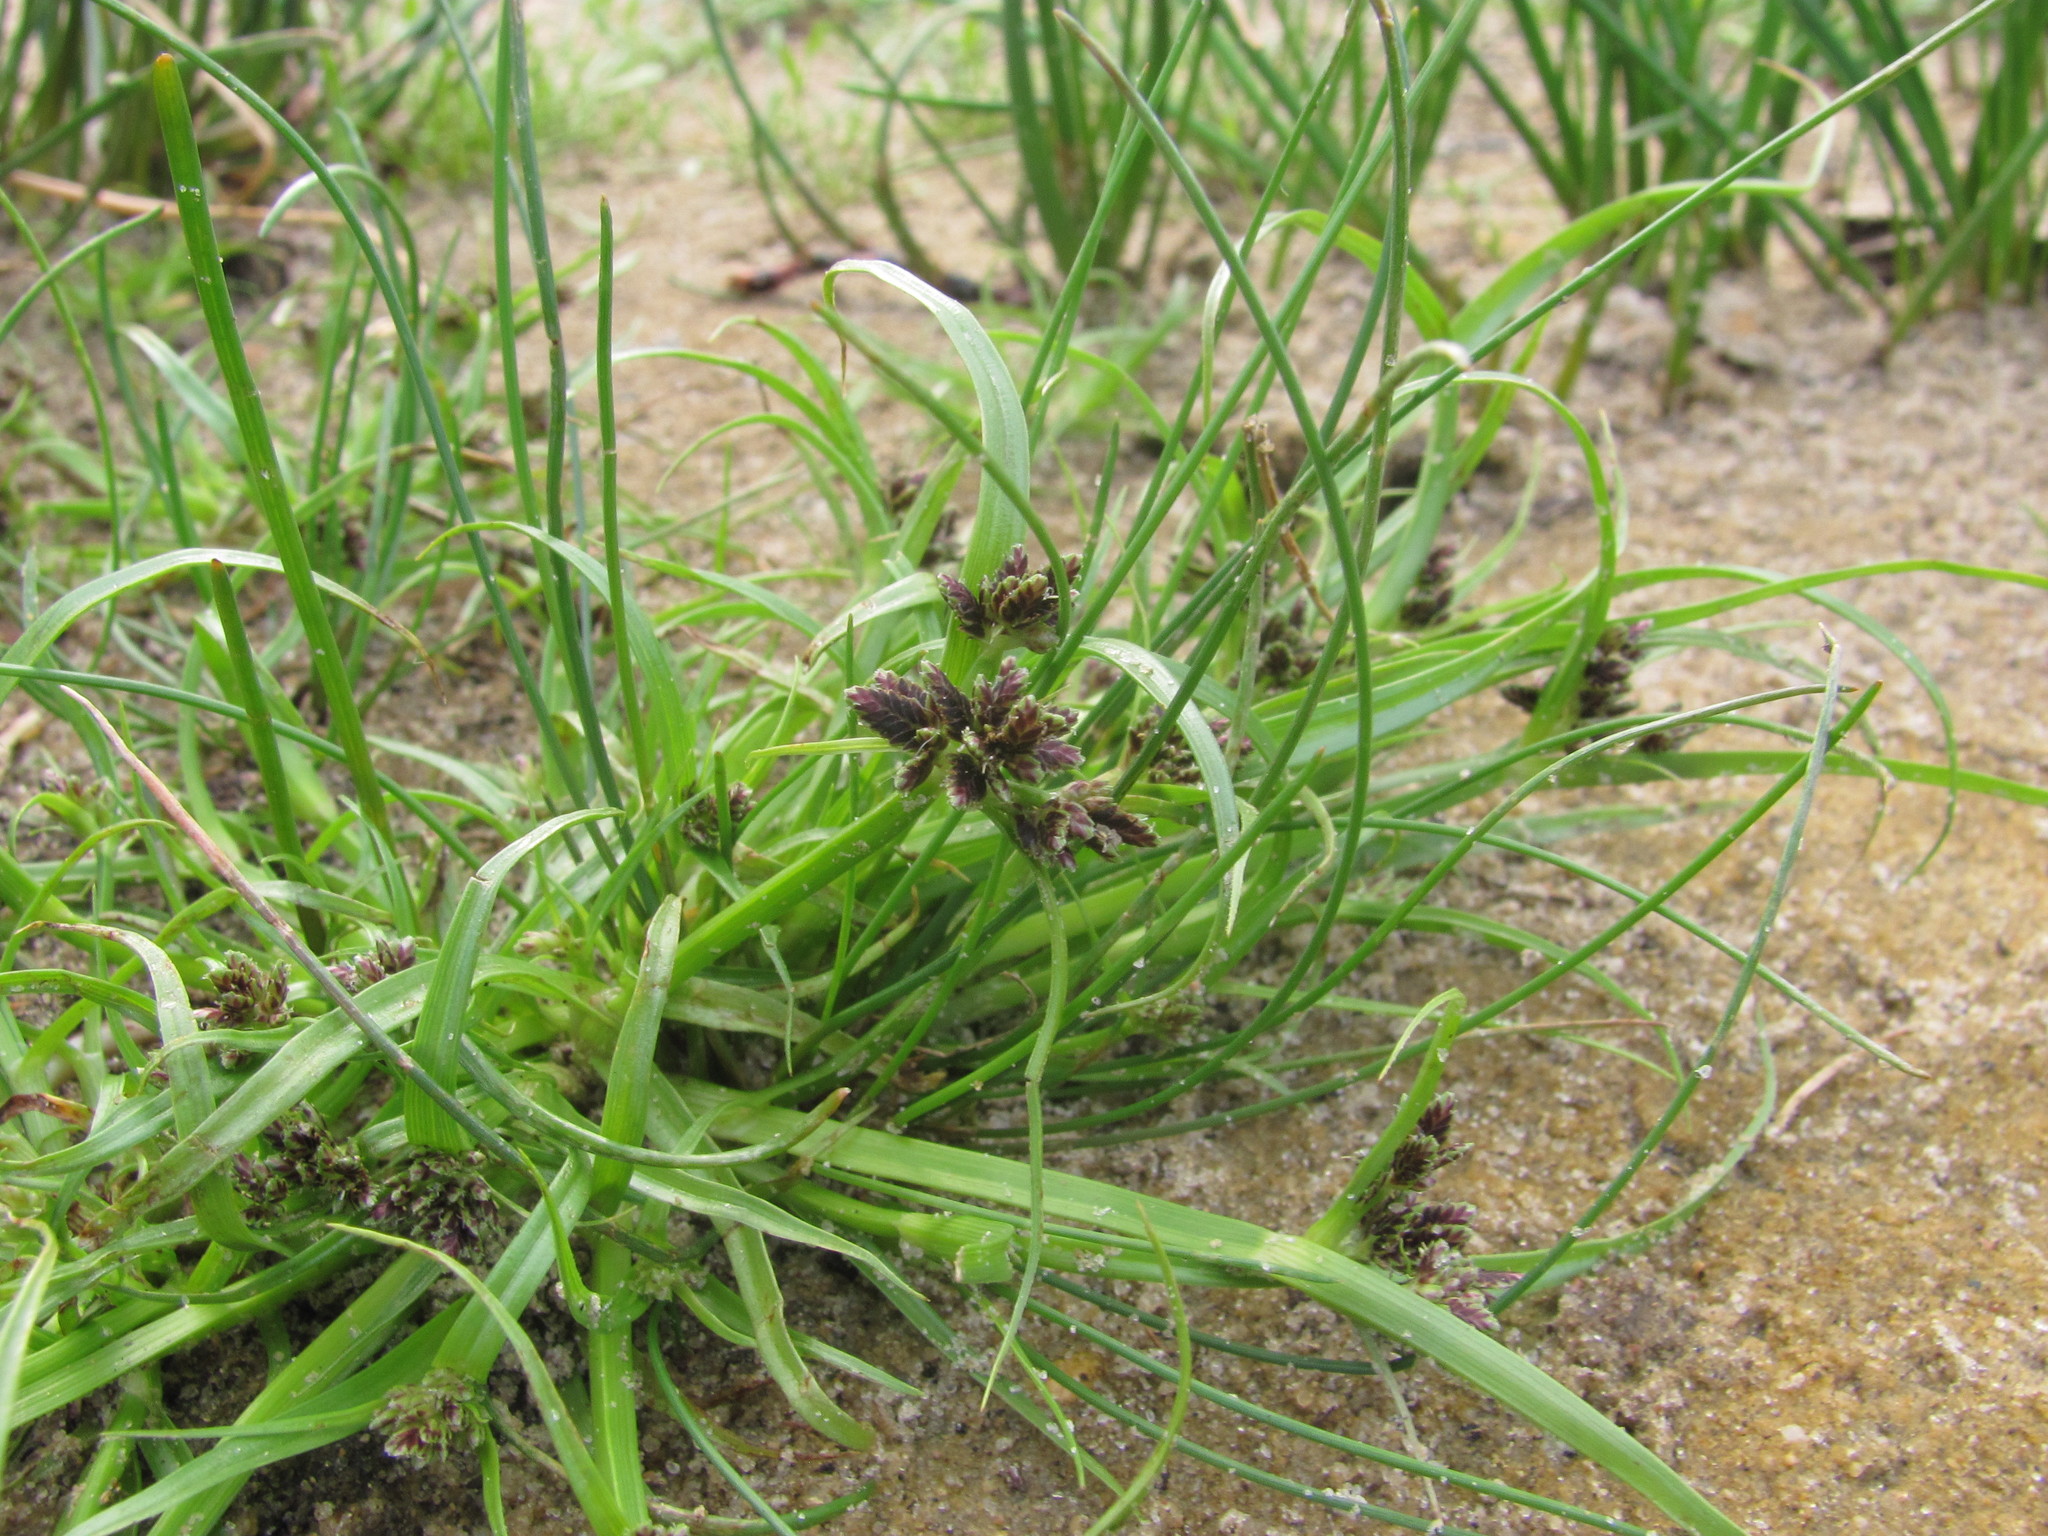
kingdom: Plantae
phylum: Tracheophyta
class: Liliopsida
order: Poales
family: Cyperaceae
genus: Cyperus
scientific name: Cyperus fuscus
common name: Brown galingale
